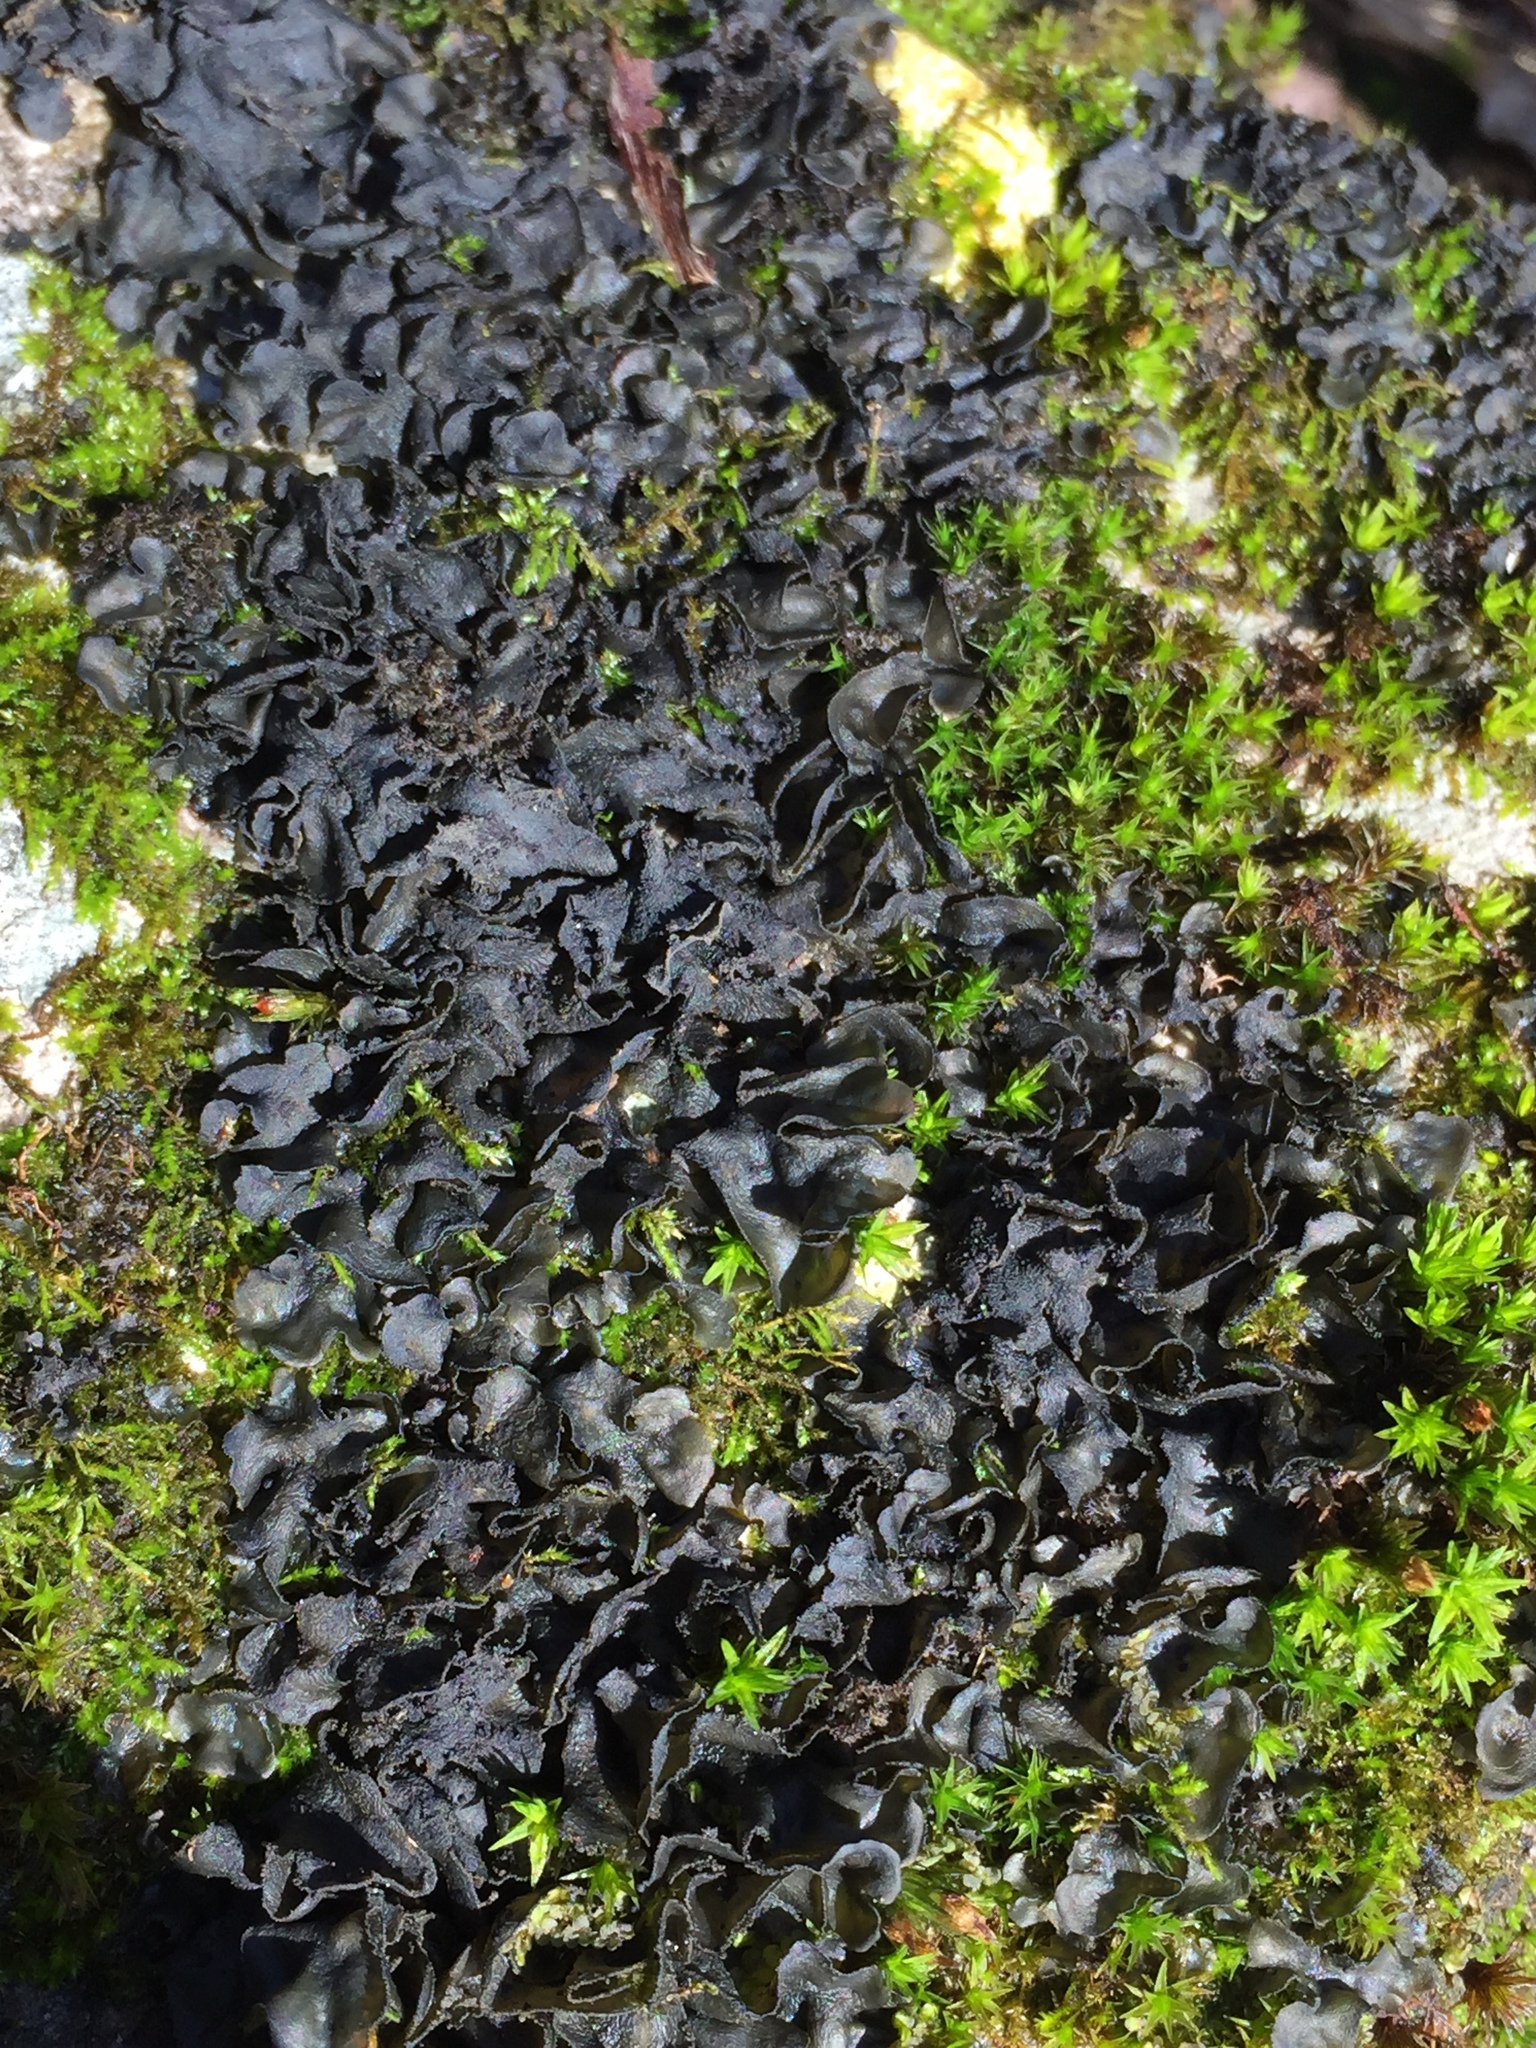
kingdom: Fungi
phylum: Ascomycota
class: Lecanoromycetes
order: Peltigerales
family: Collemataceae
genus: Leptogium
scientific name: Leptogium cyanescens
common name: Blue jellyskin
